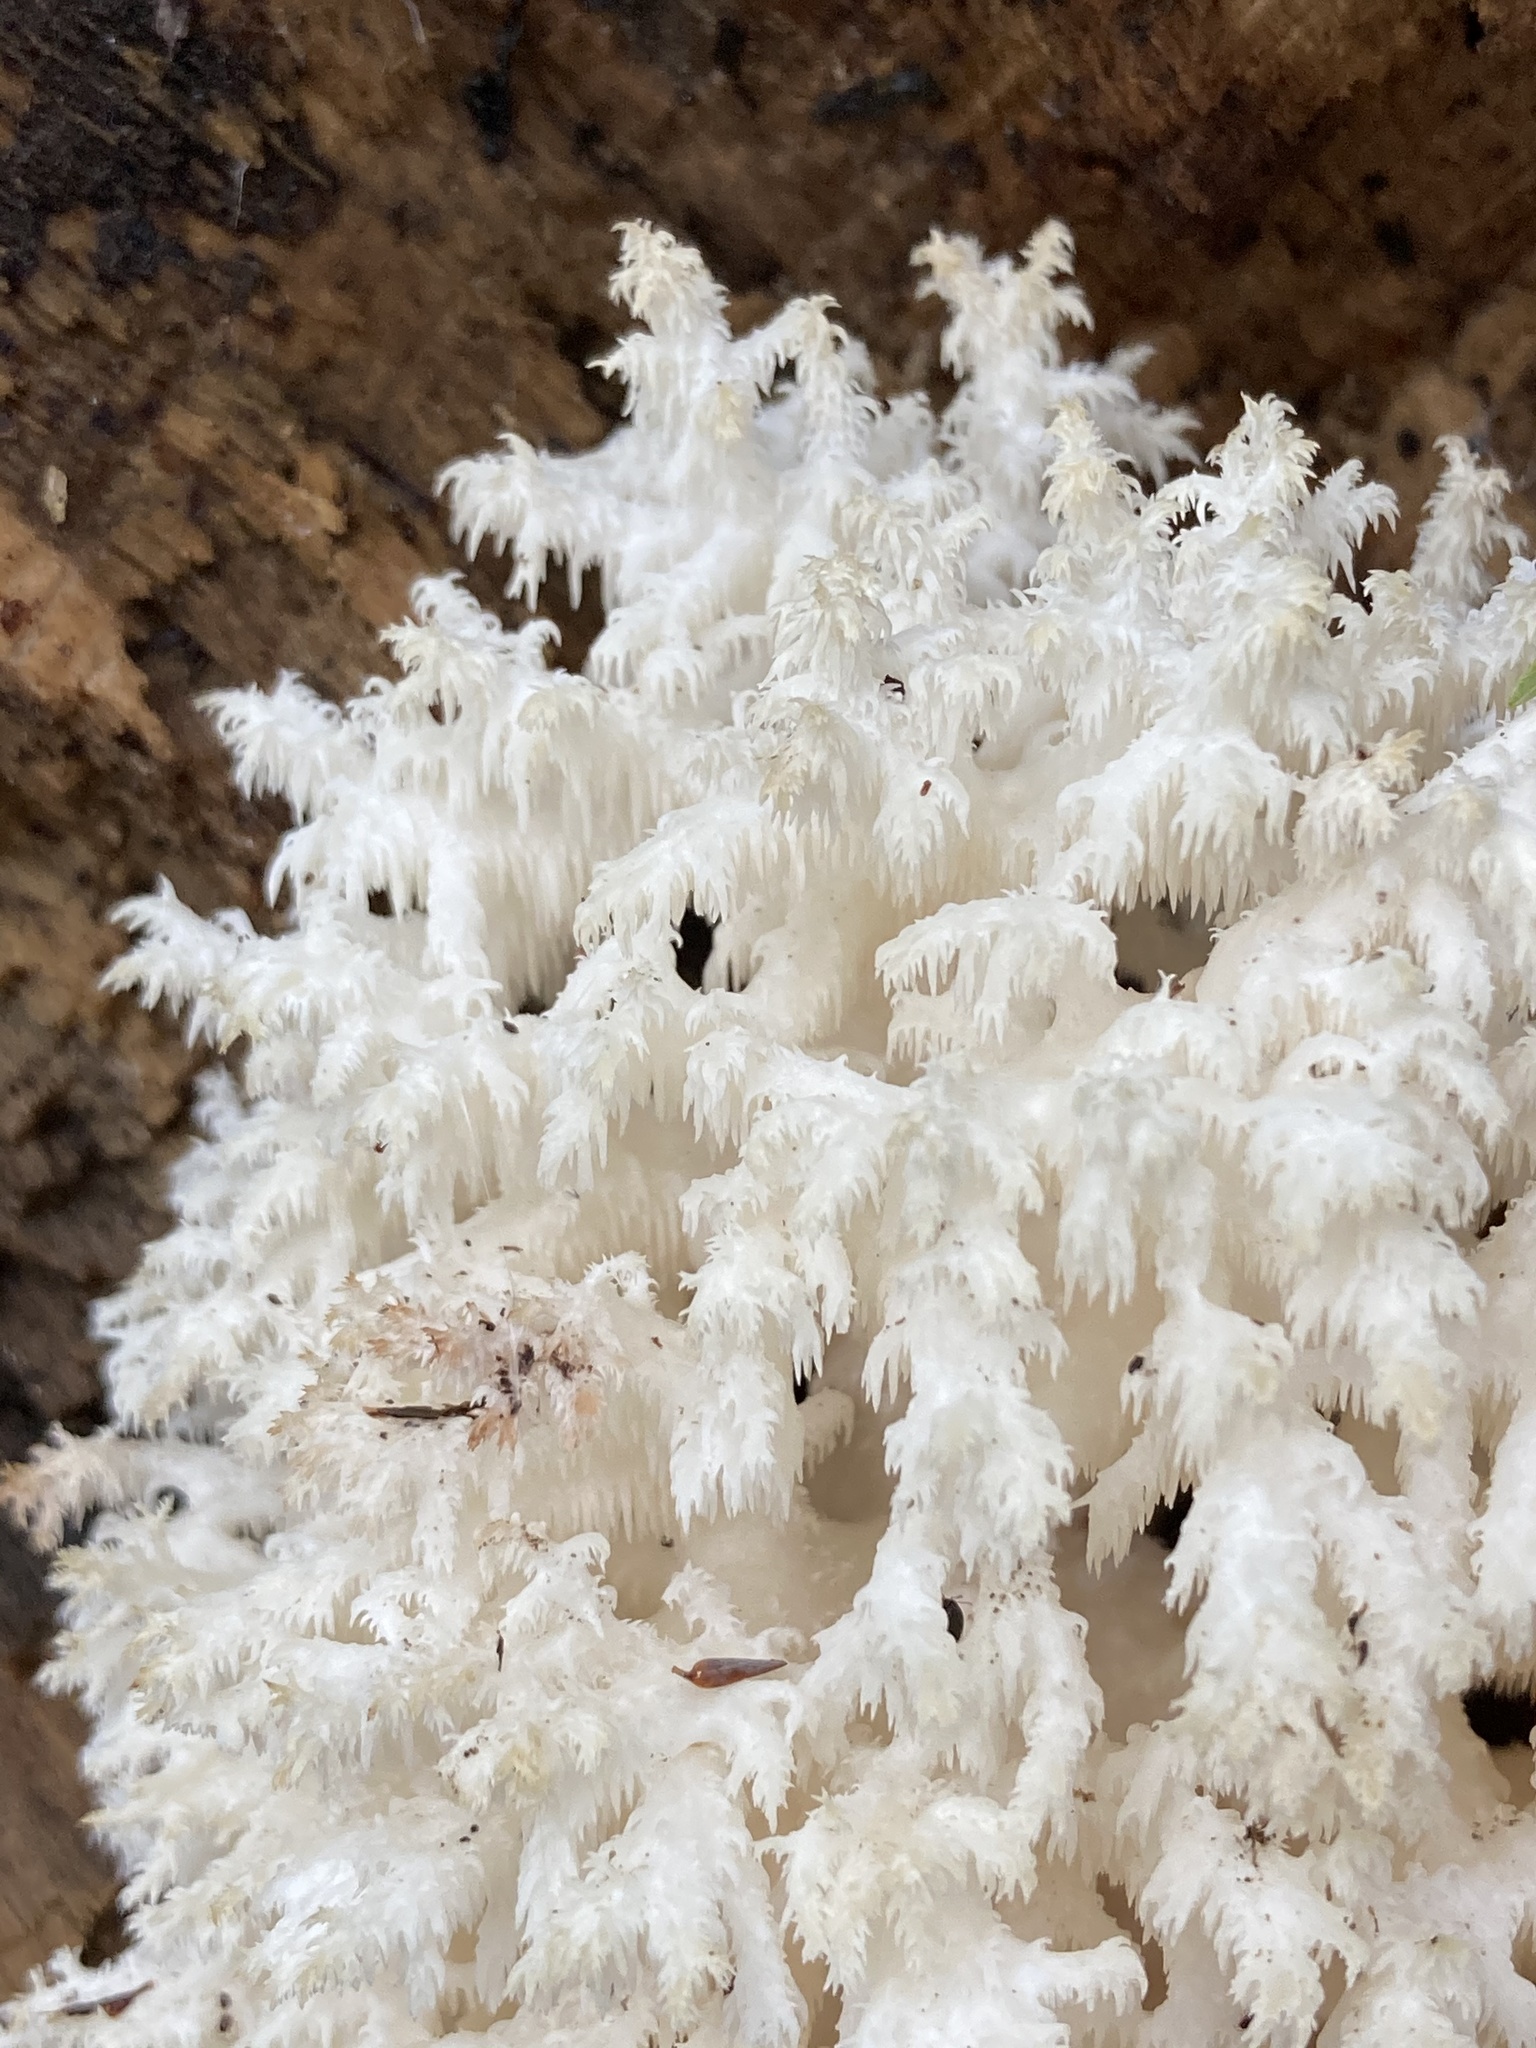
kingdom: Fungi
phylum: Basidiomycota
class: Agaricomycetes
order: Russulales
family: Hericiaceae
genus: Hericium
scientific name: Hericium coralloides
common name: Coral tooth
